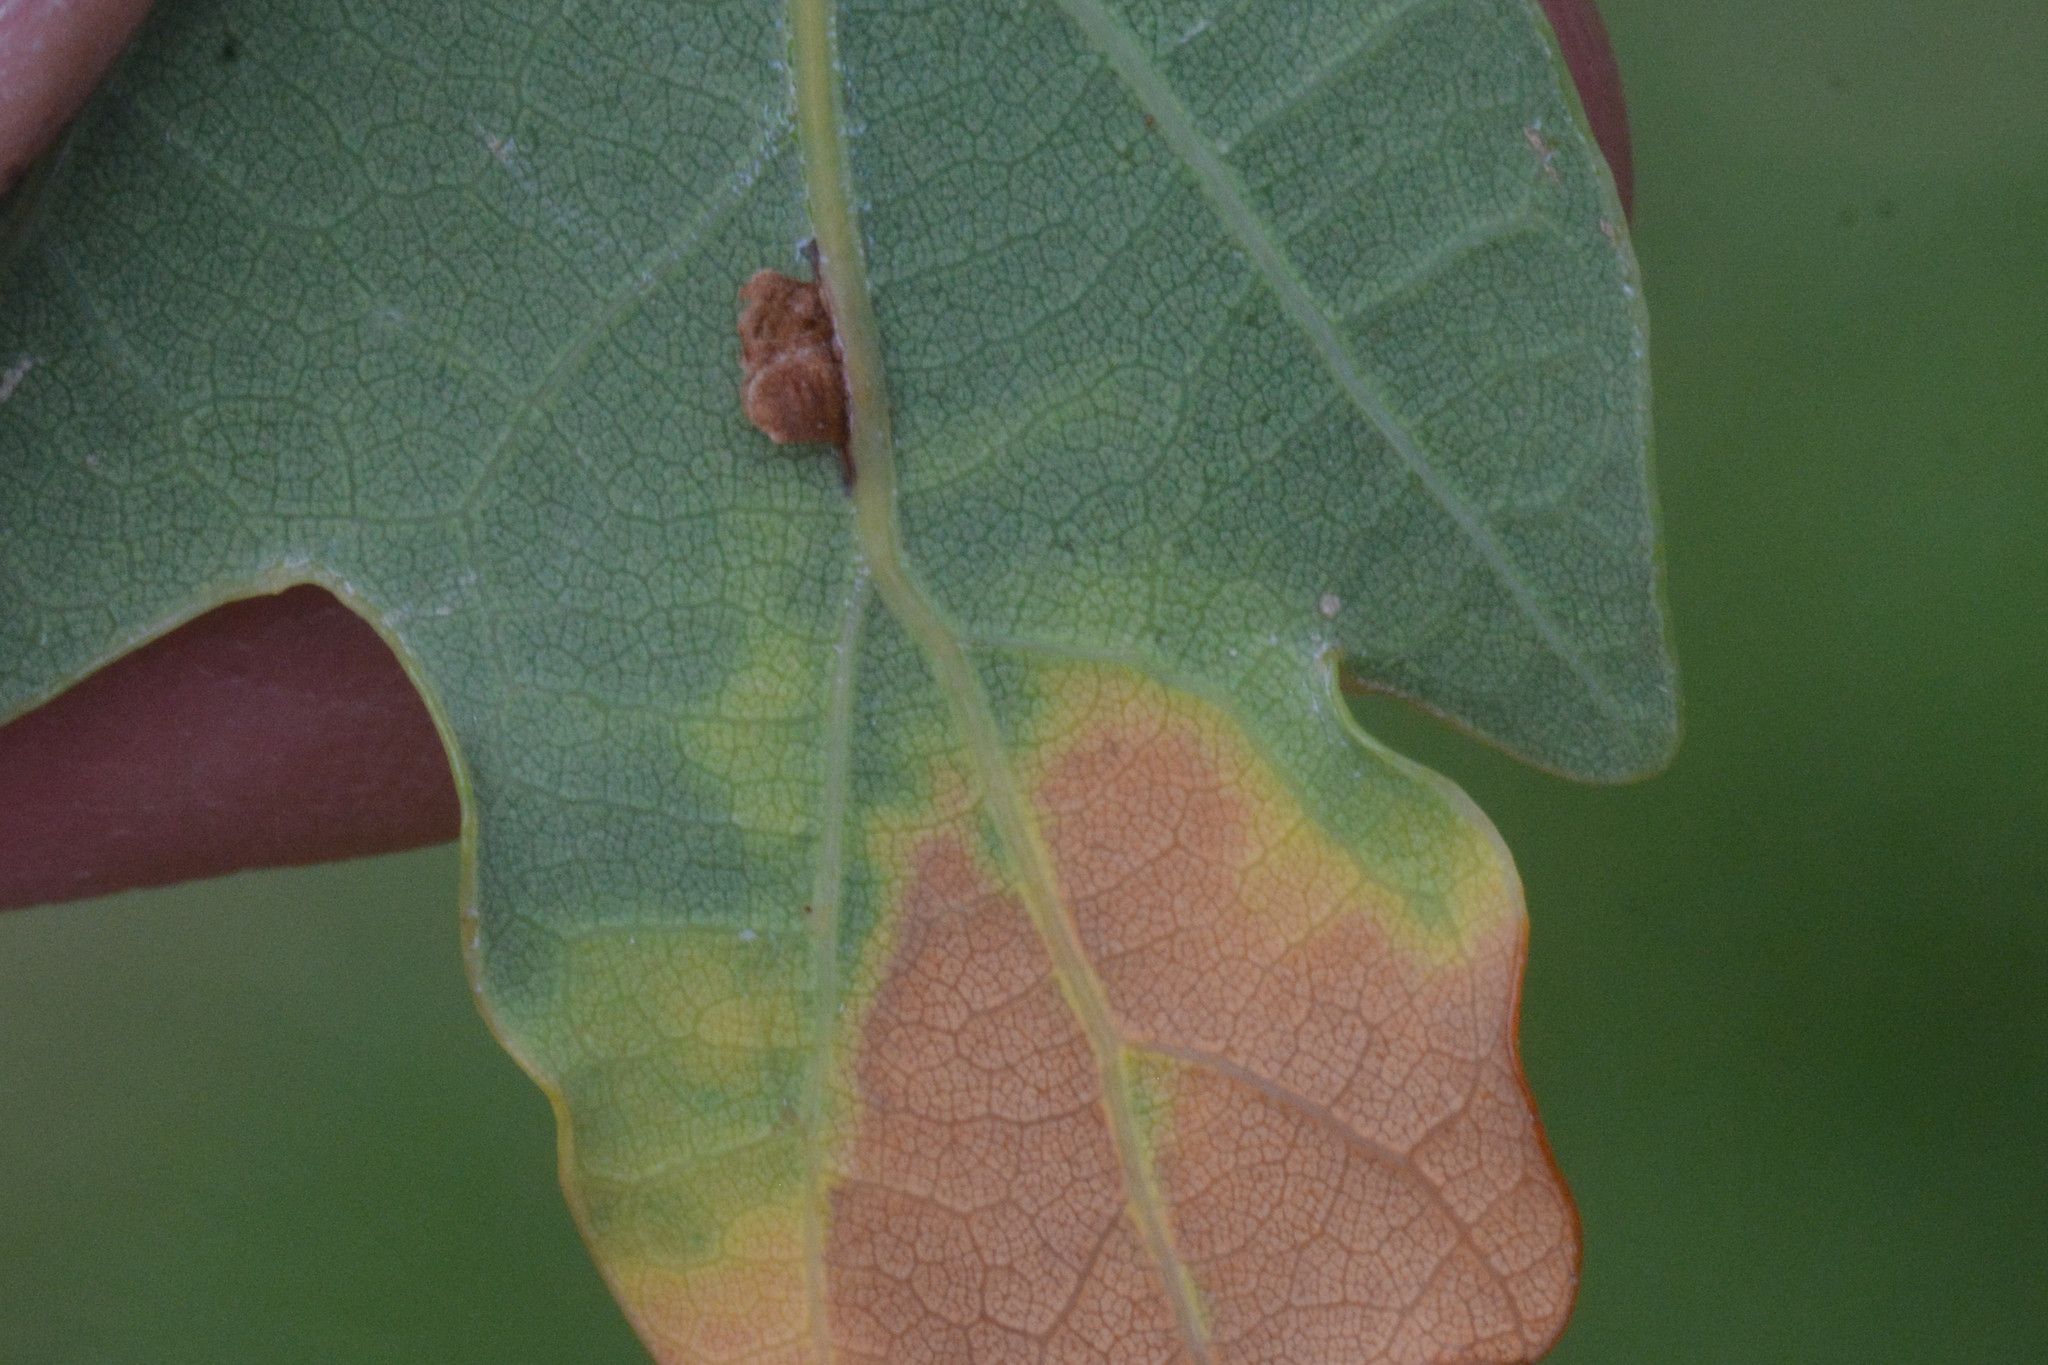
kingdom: Animalia
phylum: Arthropoda
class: Insecta
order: Hymenoptera
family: Cynipidae
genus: Neuroterus
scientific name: Neuroterus anthracinus
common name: Oyster gall
